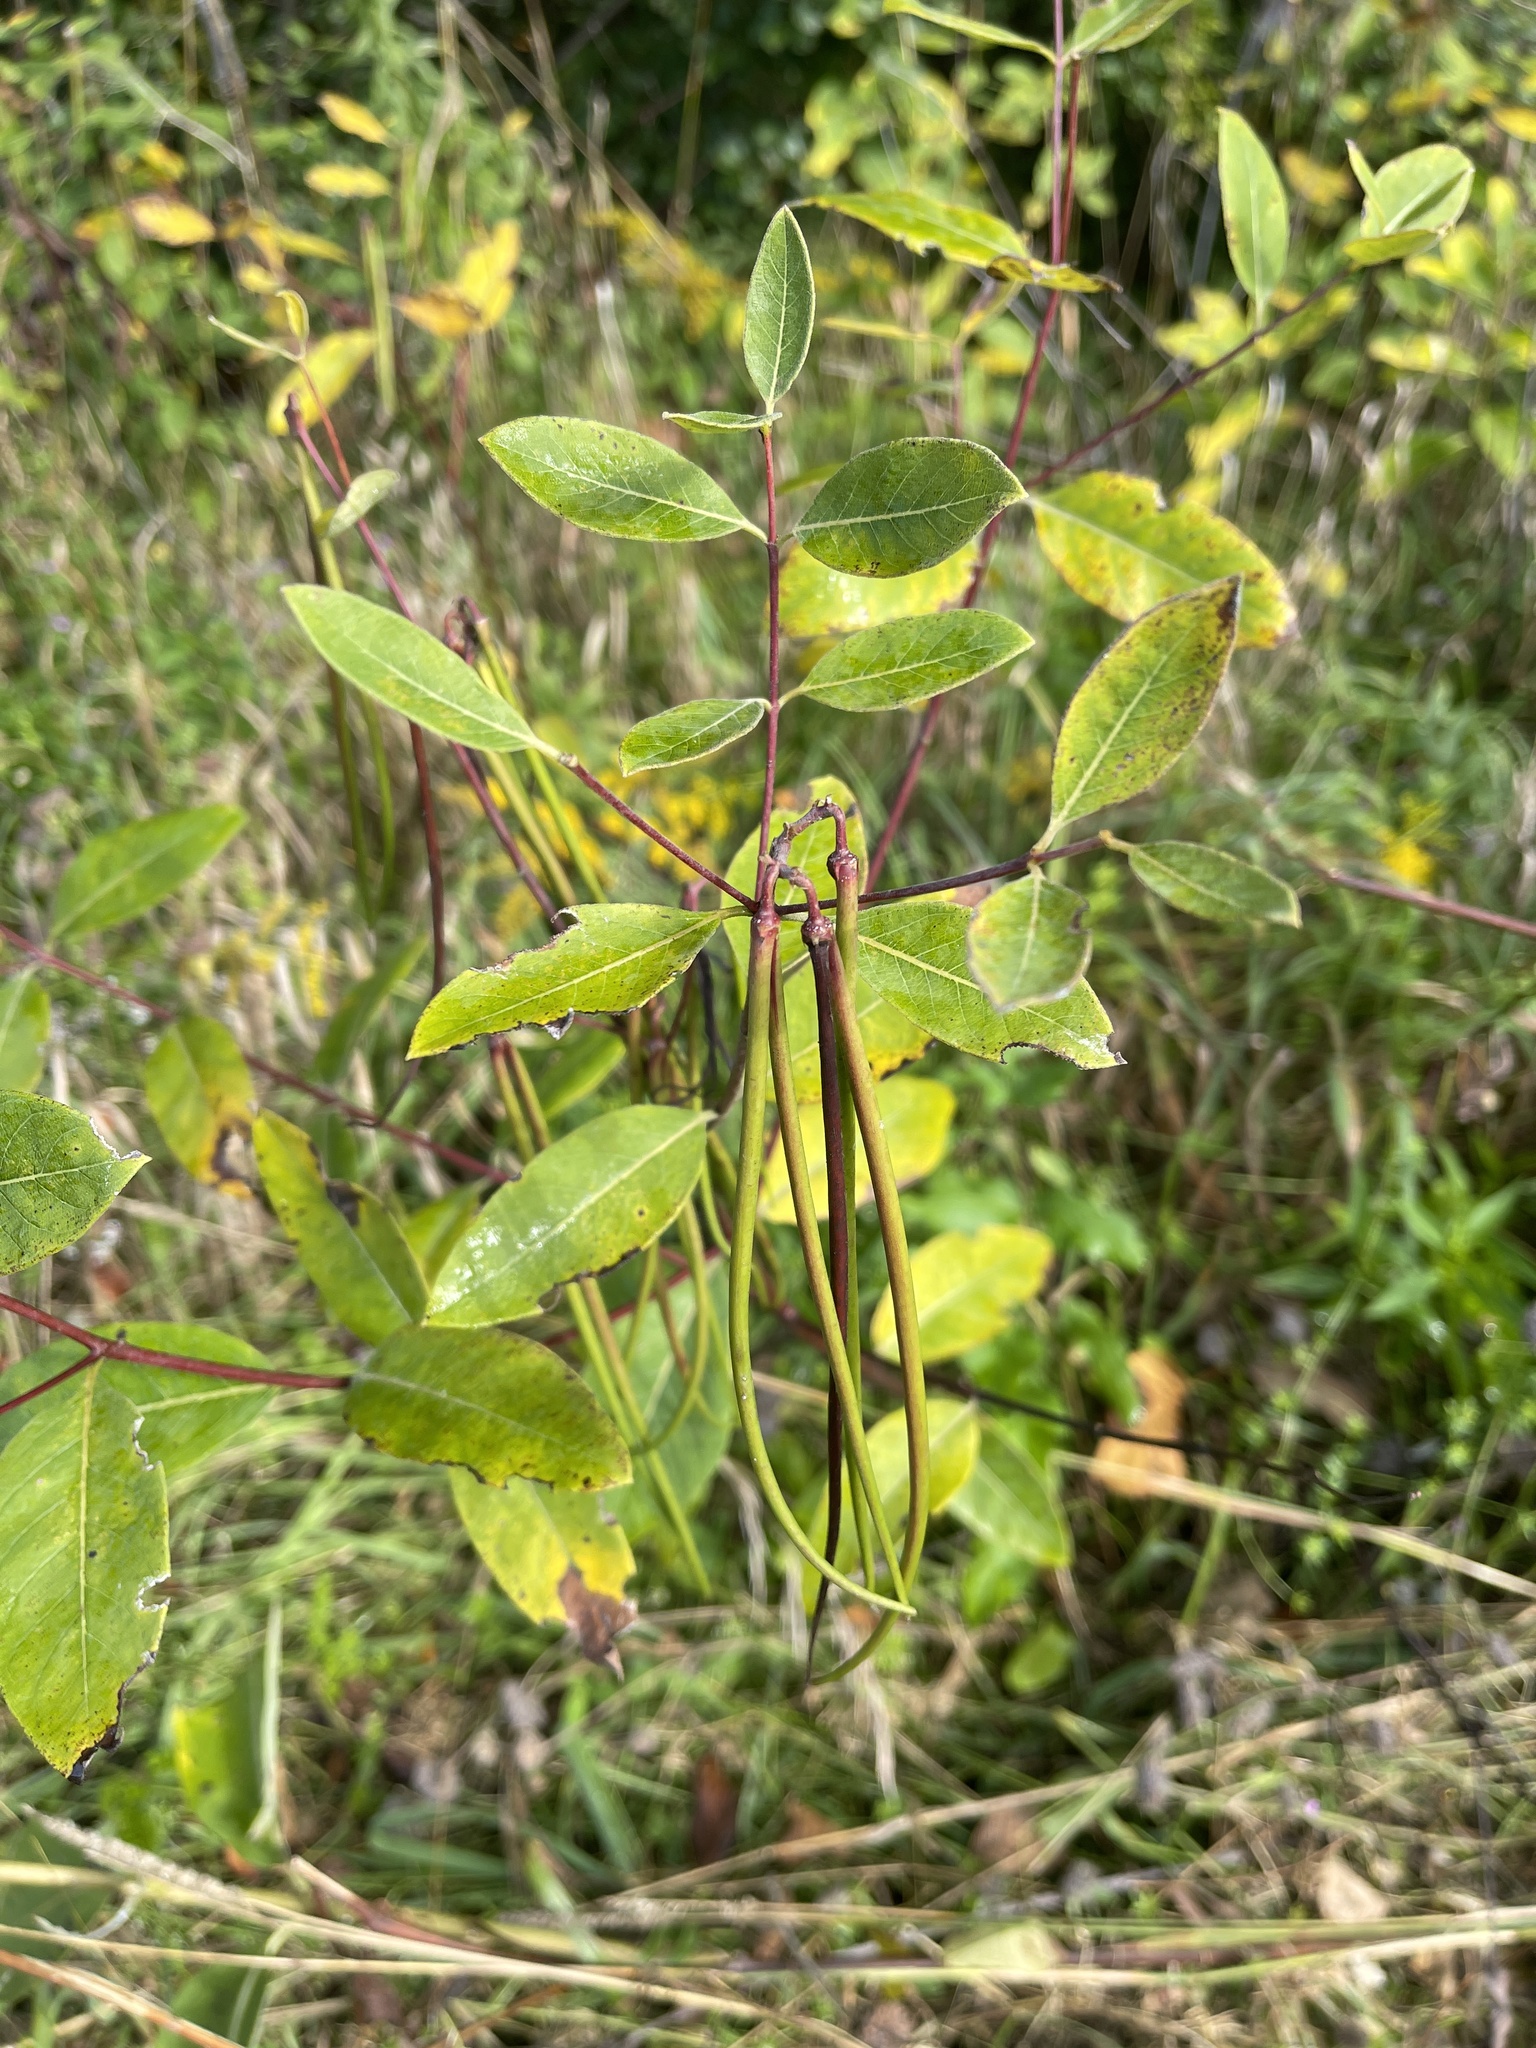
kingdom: Plantae
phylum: Tracheophyta
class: Magnoliopsida
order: Gentianales
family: Apocynaceae
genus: Apocynum
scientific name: Apocynum cannabinum
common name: Hemp dogbane
